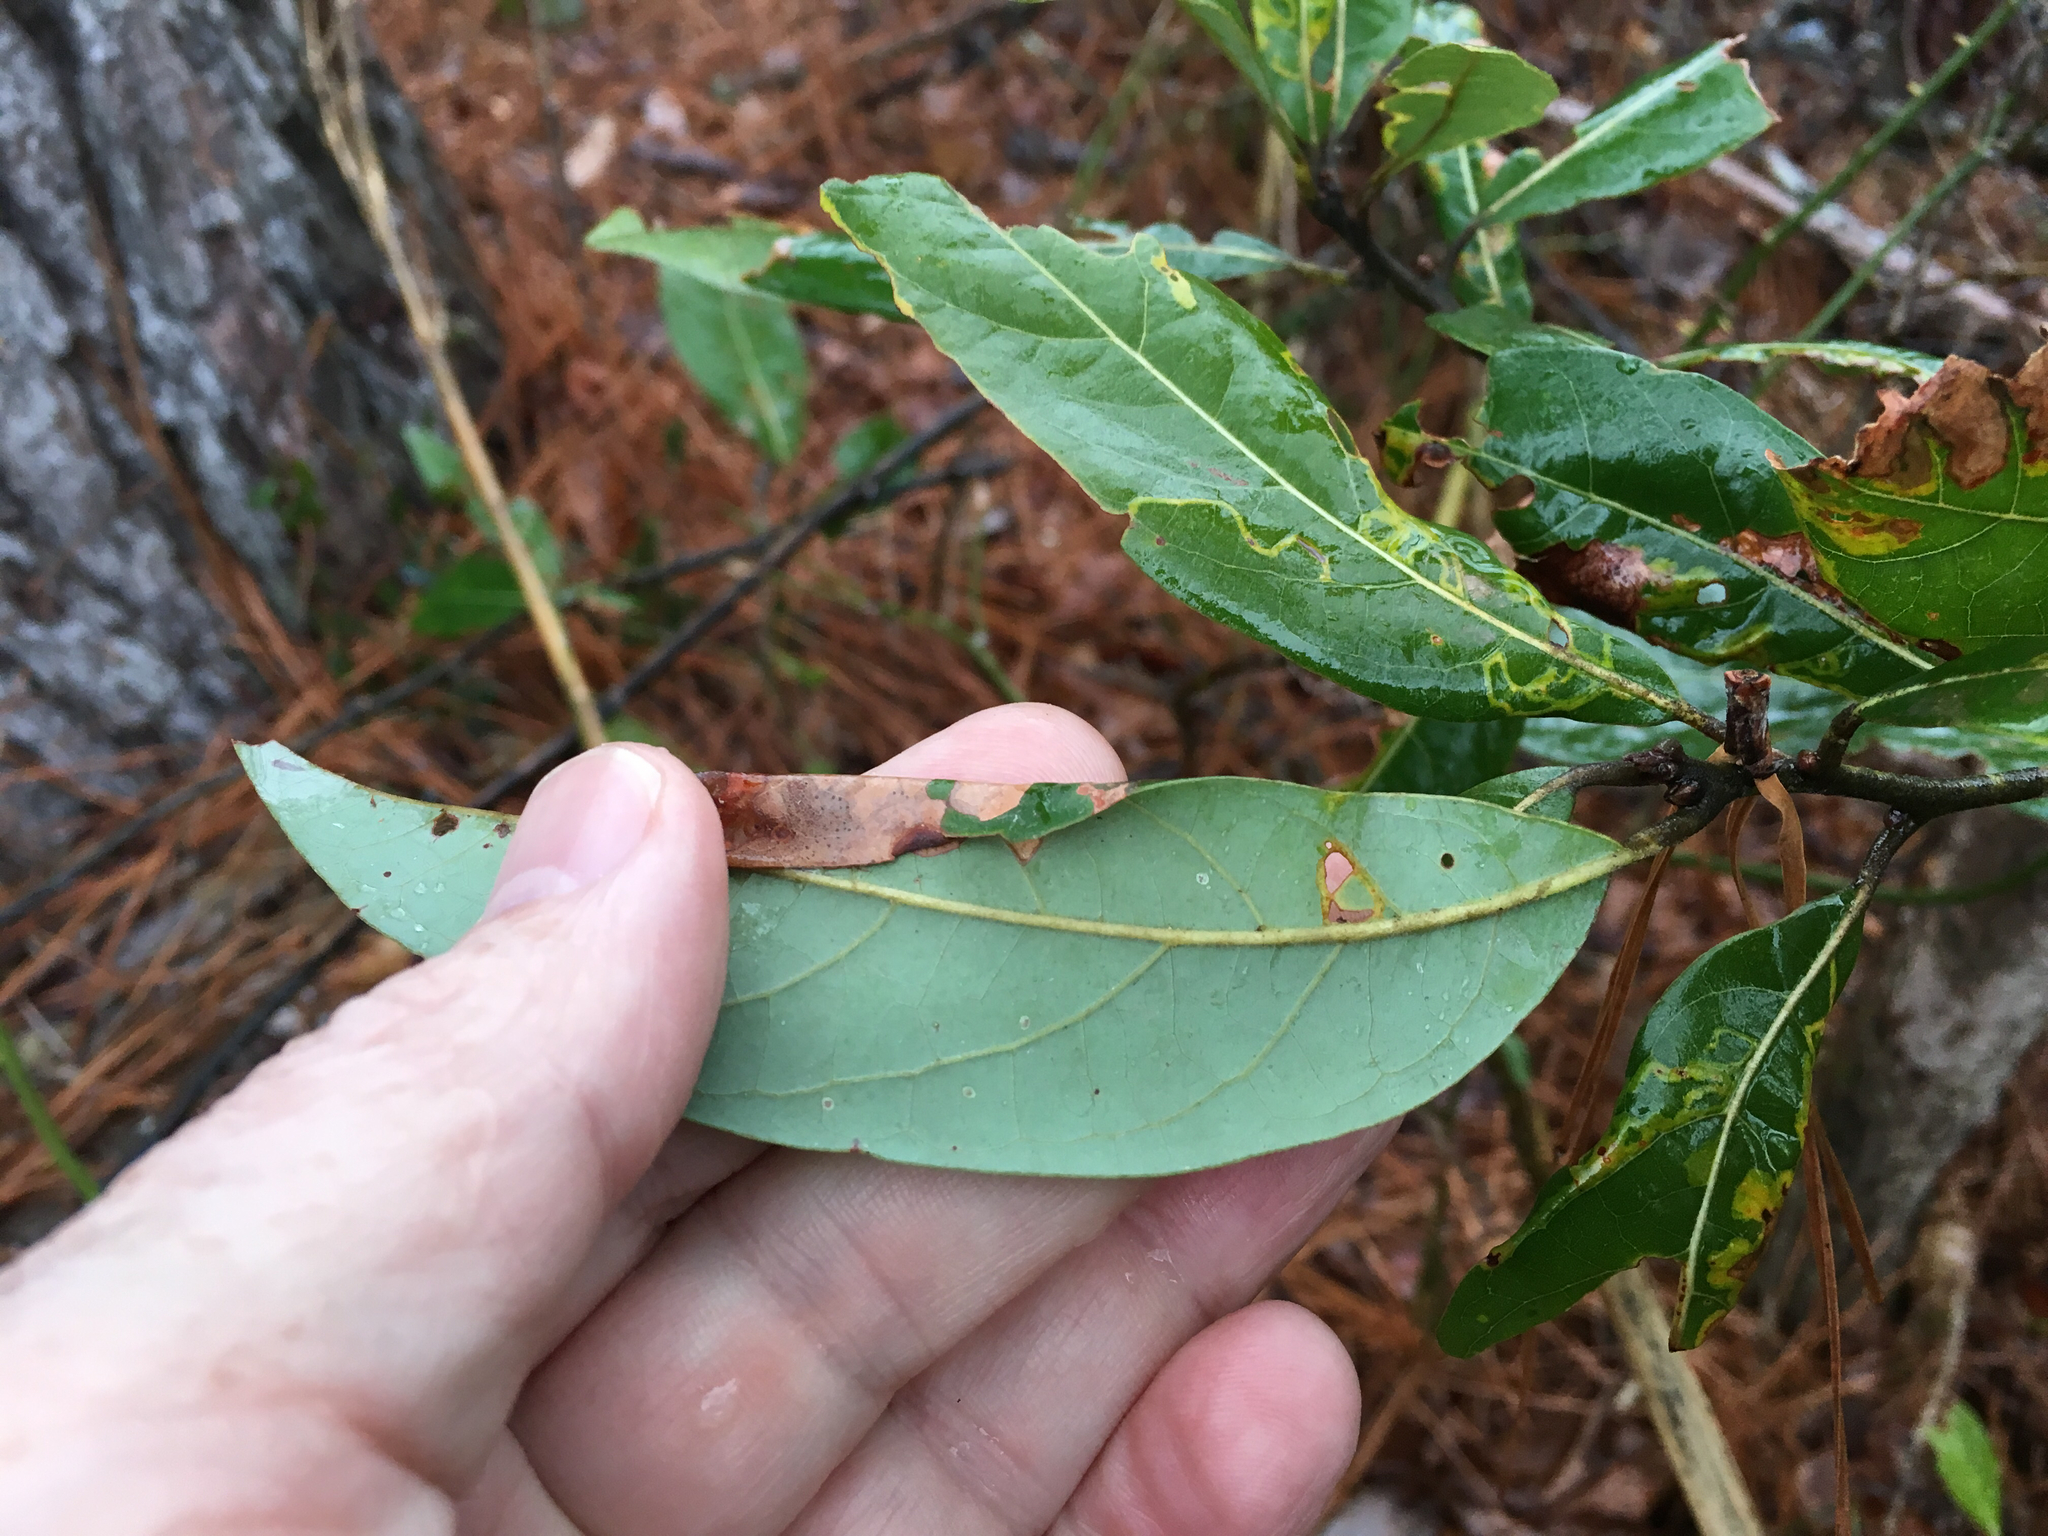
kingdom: Plantae
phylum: Tracheophyta
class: Magnoliopsida
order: Laurales
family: Lauraceae
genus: Persea
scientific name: Persea palustris
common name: Swampbay
